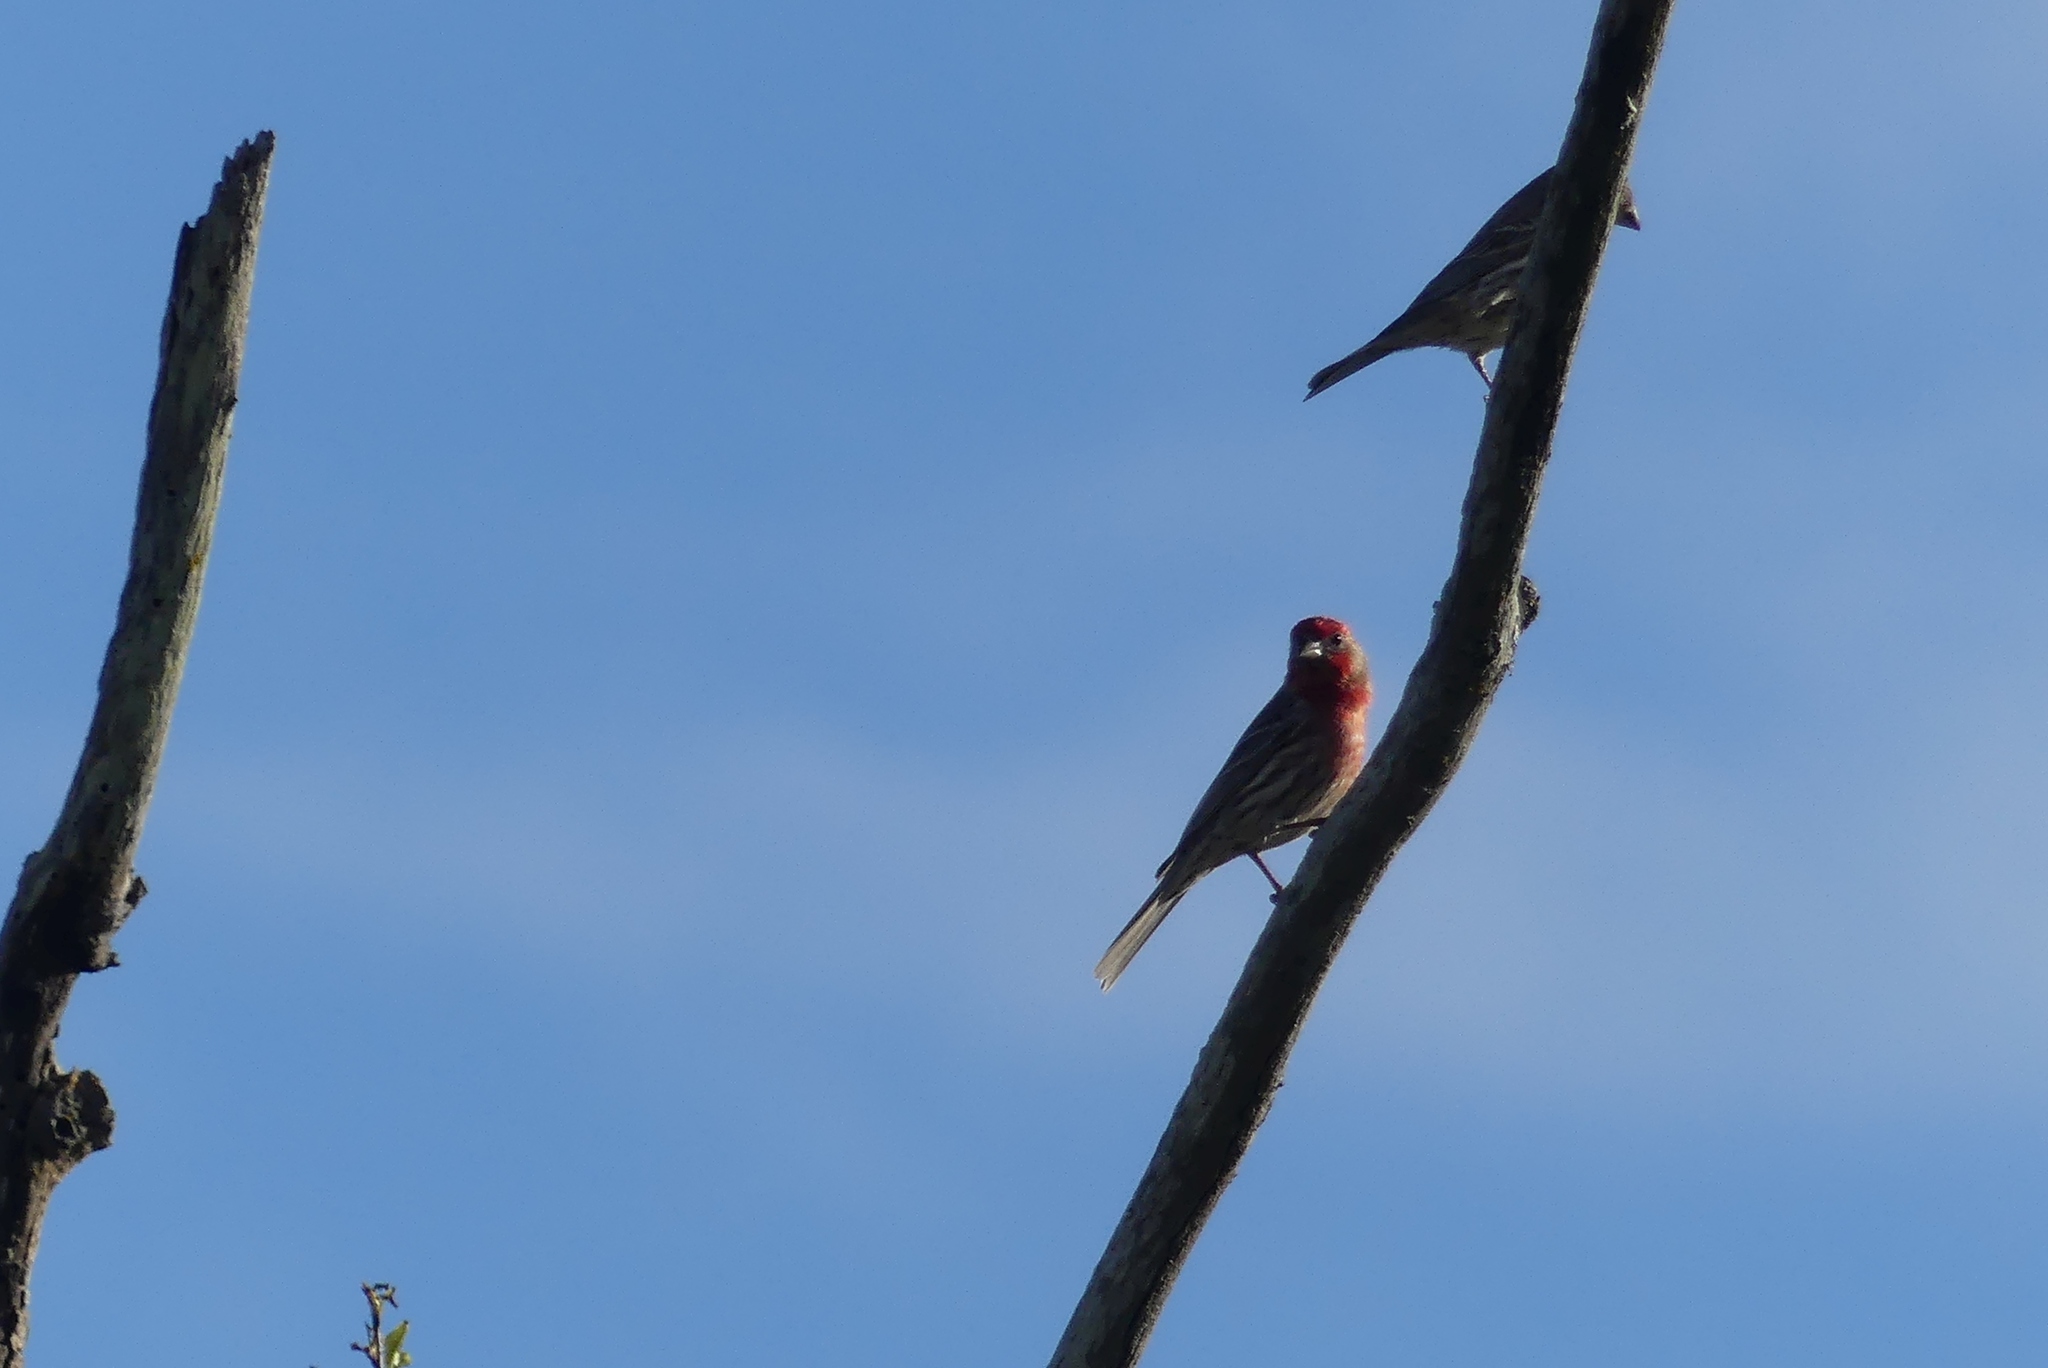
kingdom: Animalia
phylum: Chordata
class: Aves
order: Passeriformes
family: Fringillidae
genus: Haemorhous
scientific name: Haemorhous mexicanus
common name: House finch
